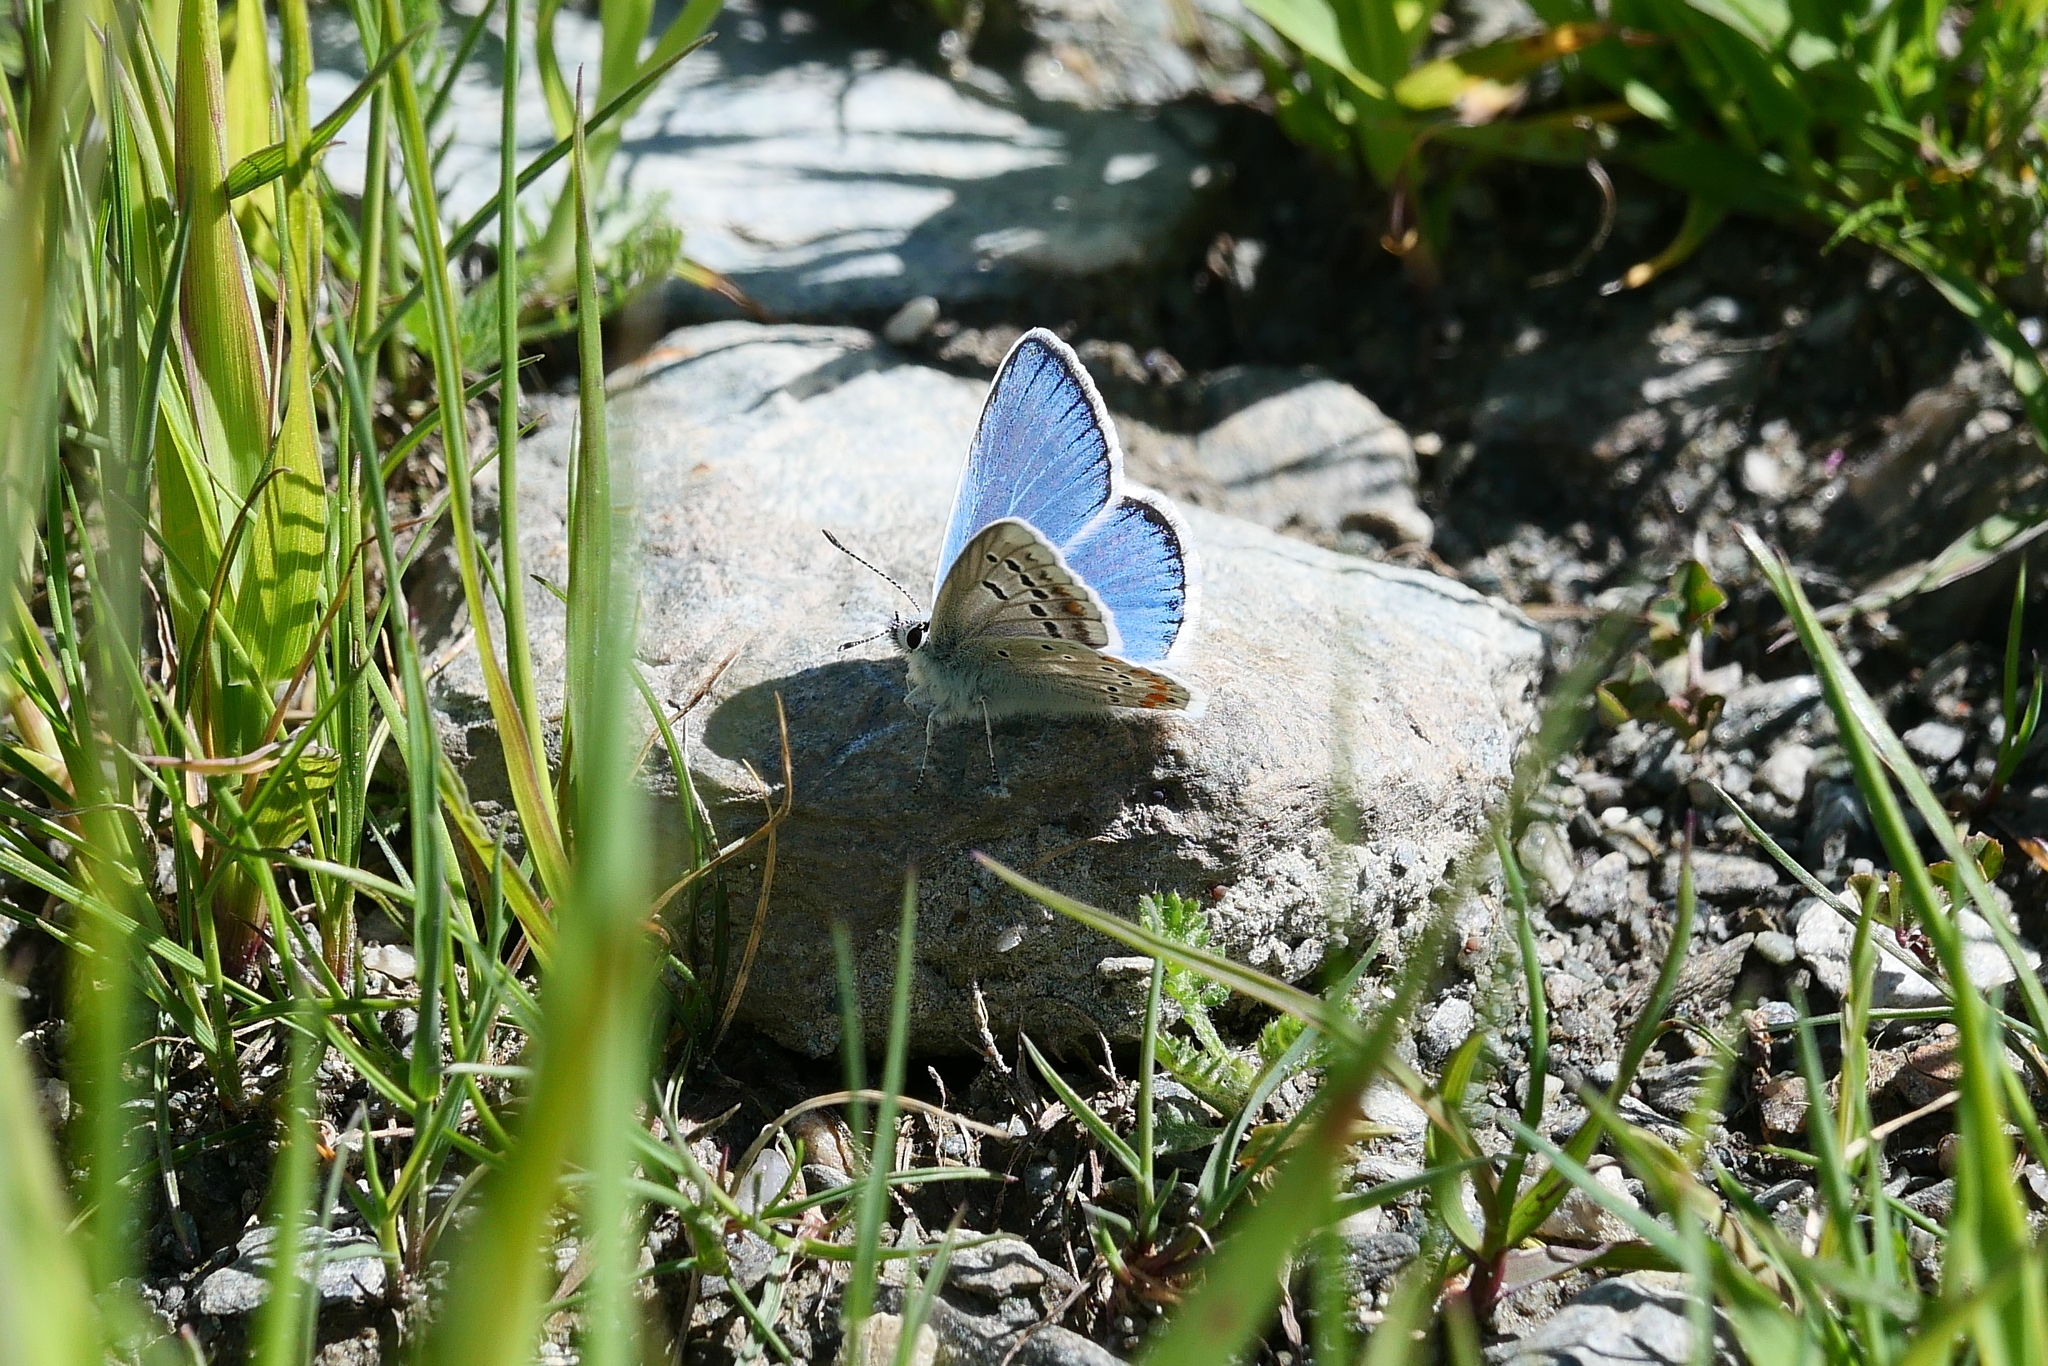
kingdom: Animalia
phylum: Arthropoda
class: Insecta
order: Lepidoptera
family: Lycaenidae
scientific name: Lycaenidae
